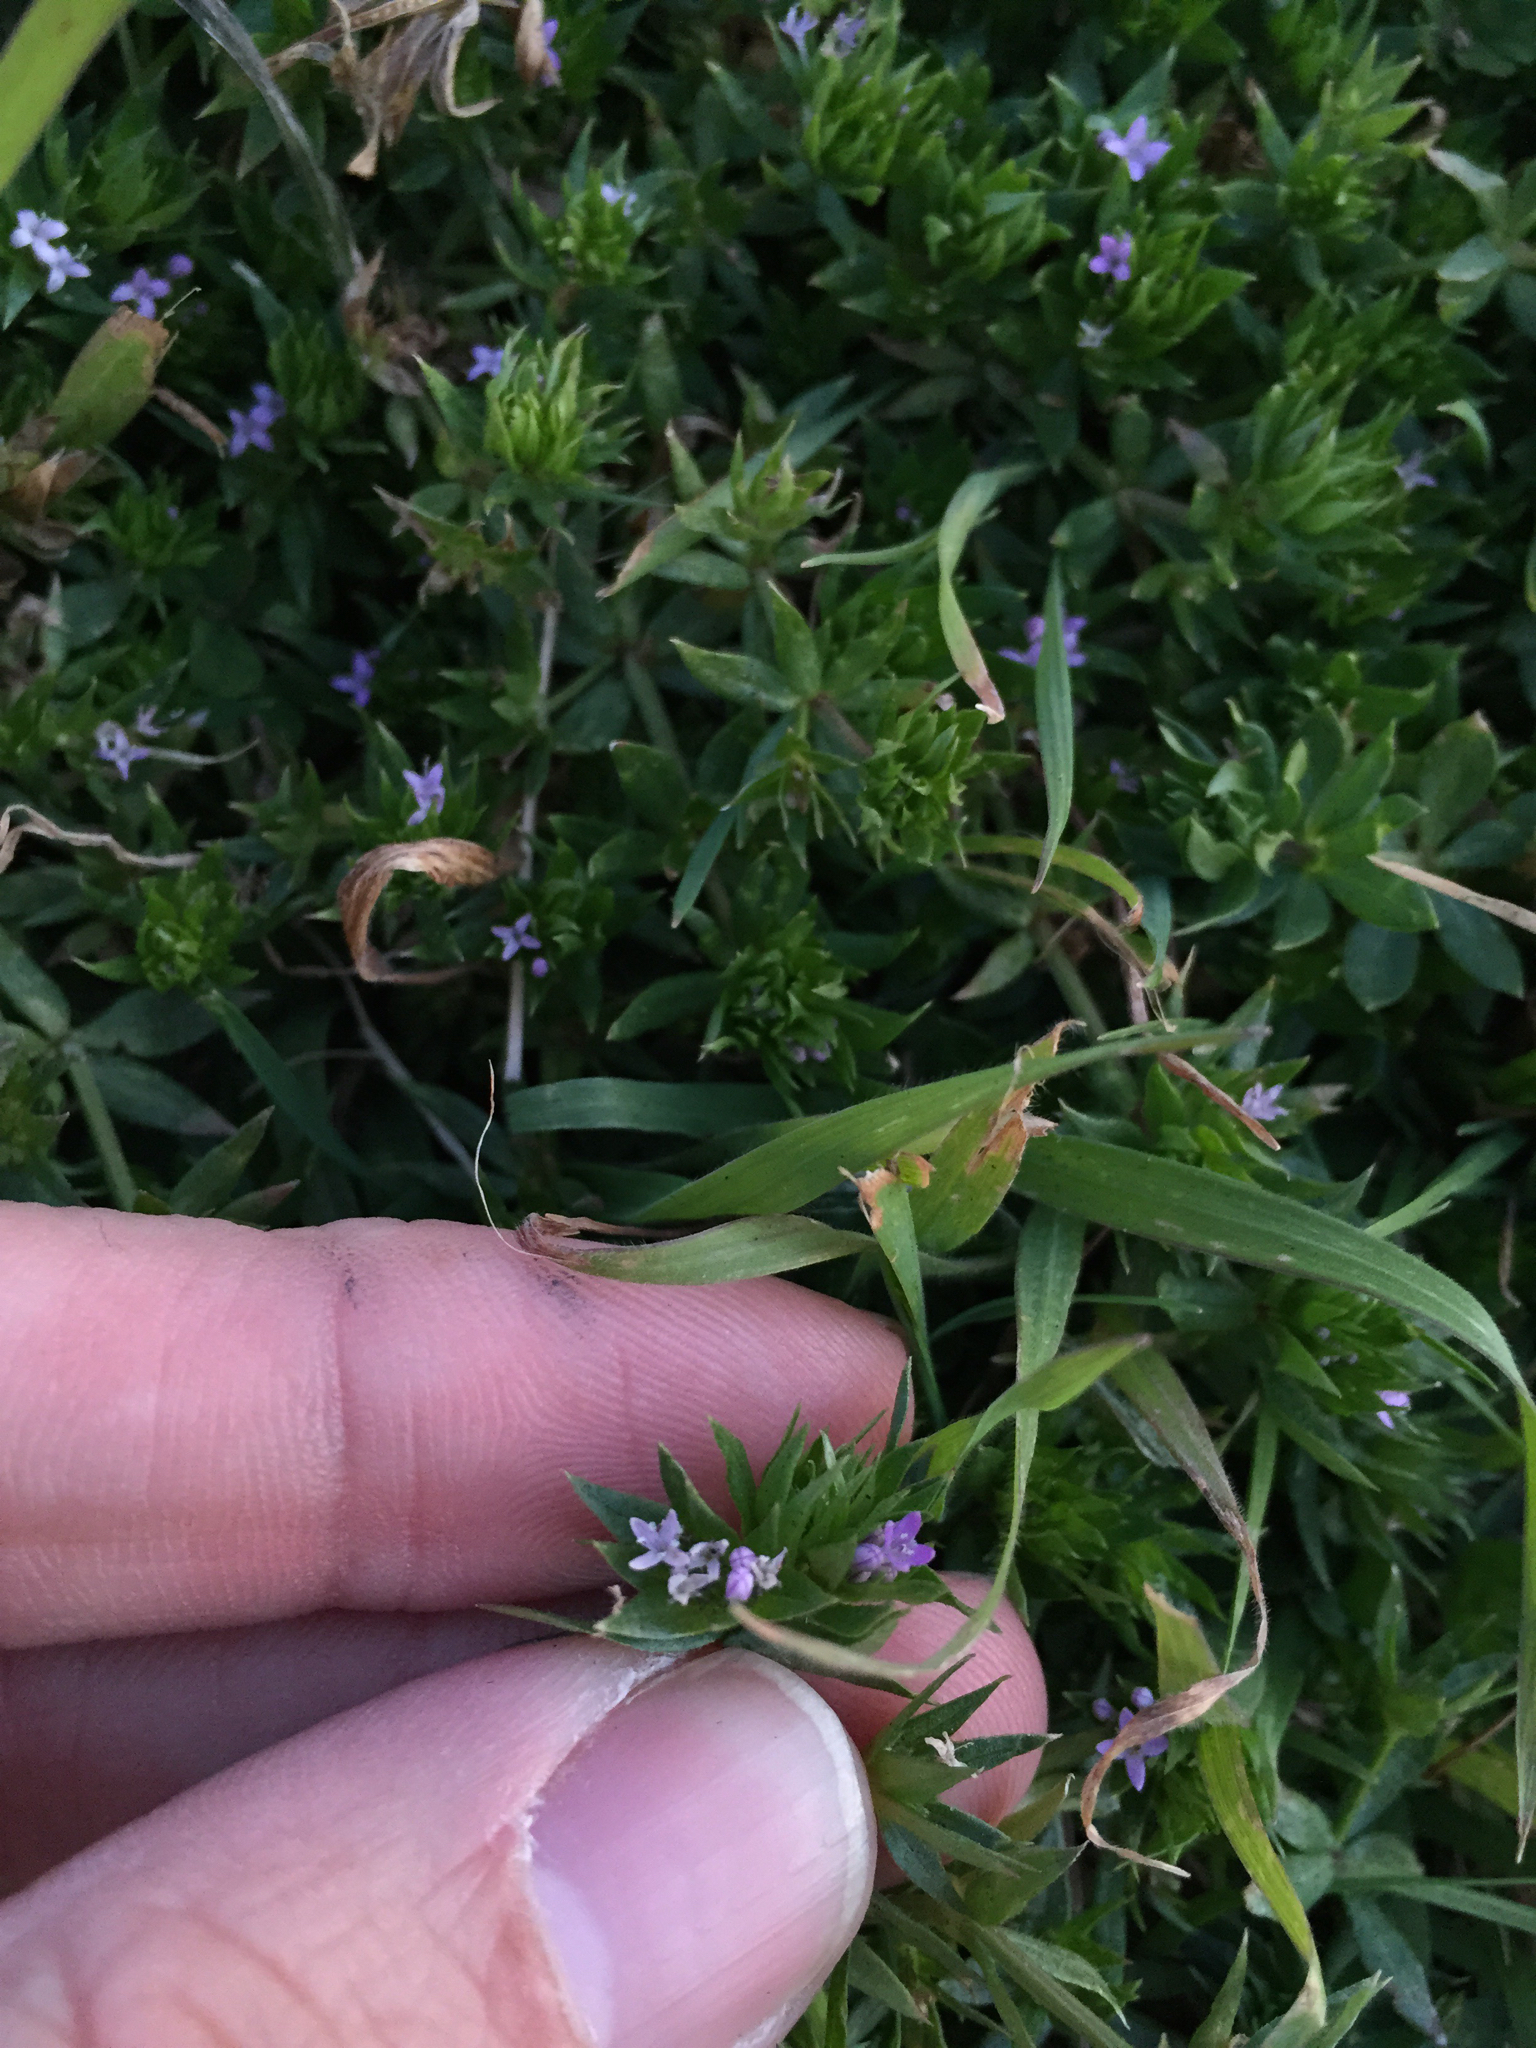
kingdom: Plantae
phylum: Tracheophyta
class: Magnoliopsida
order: Gentianales
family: Rubiaceae
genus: Sherardia
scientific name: Sherardia arvensis
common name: Field madder
